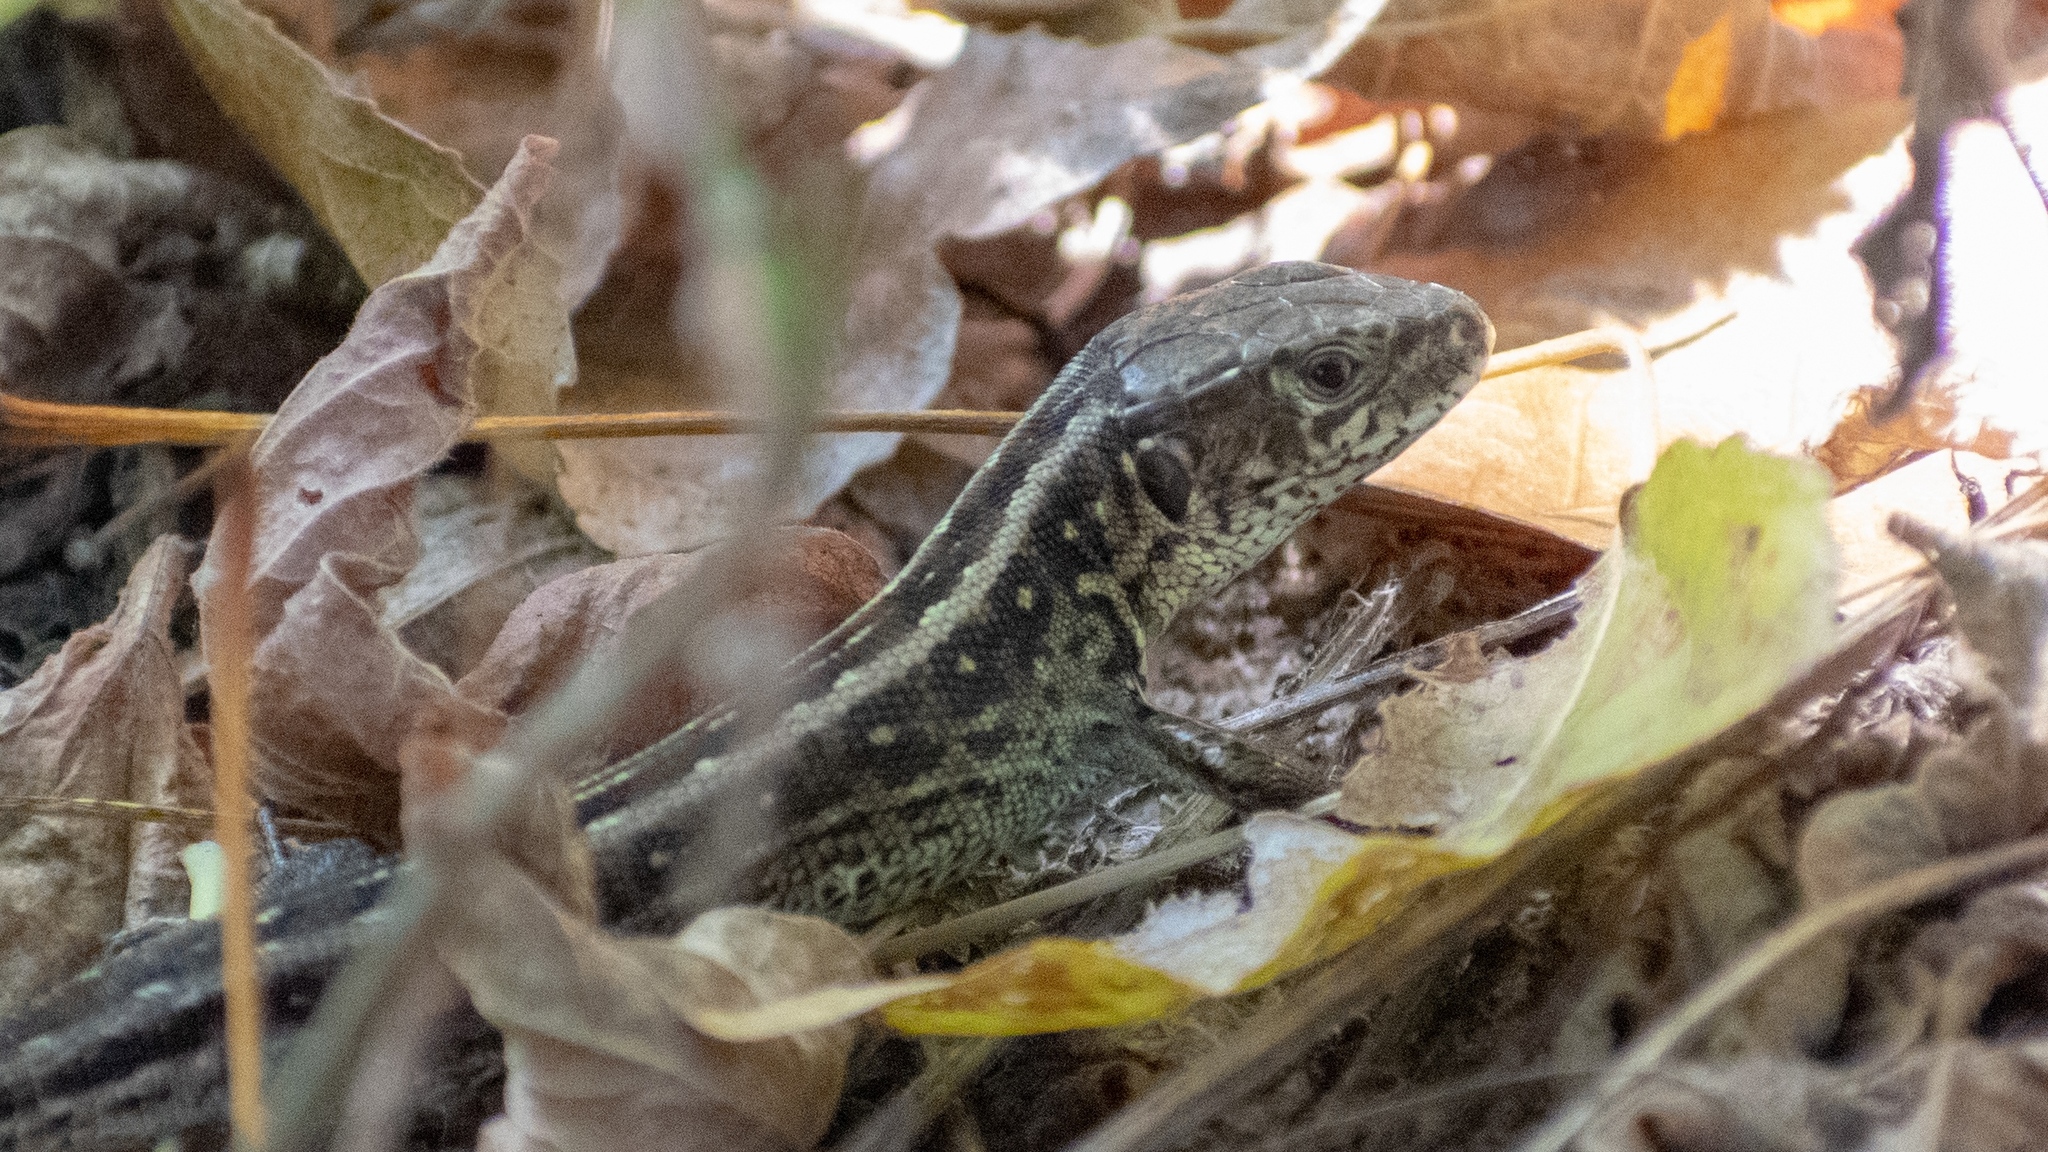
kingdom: Animalia
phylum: Chordata
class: Squamata
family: Lacertidae
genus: Lacerta
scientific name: Lacerta agilis
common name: Sand lizard
